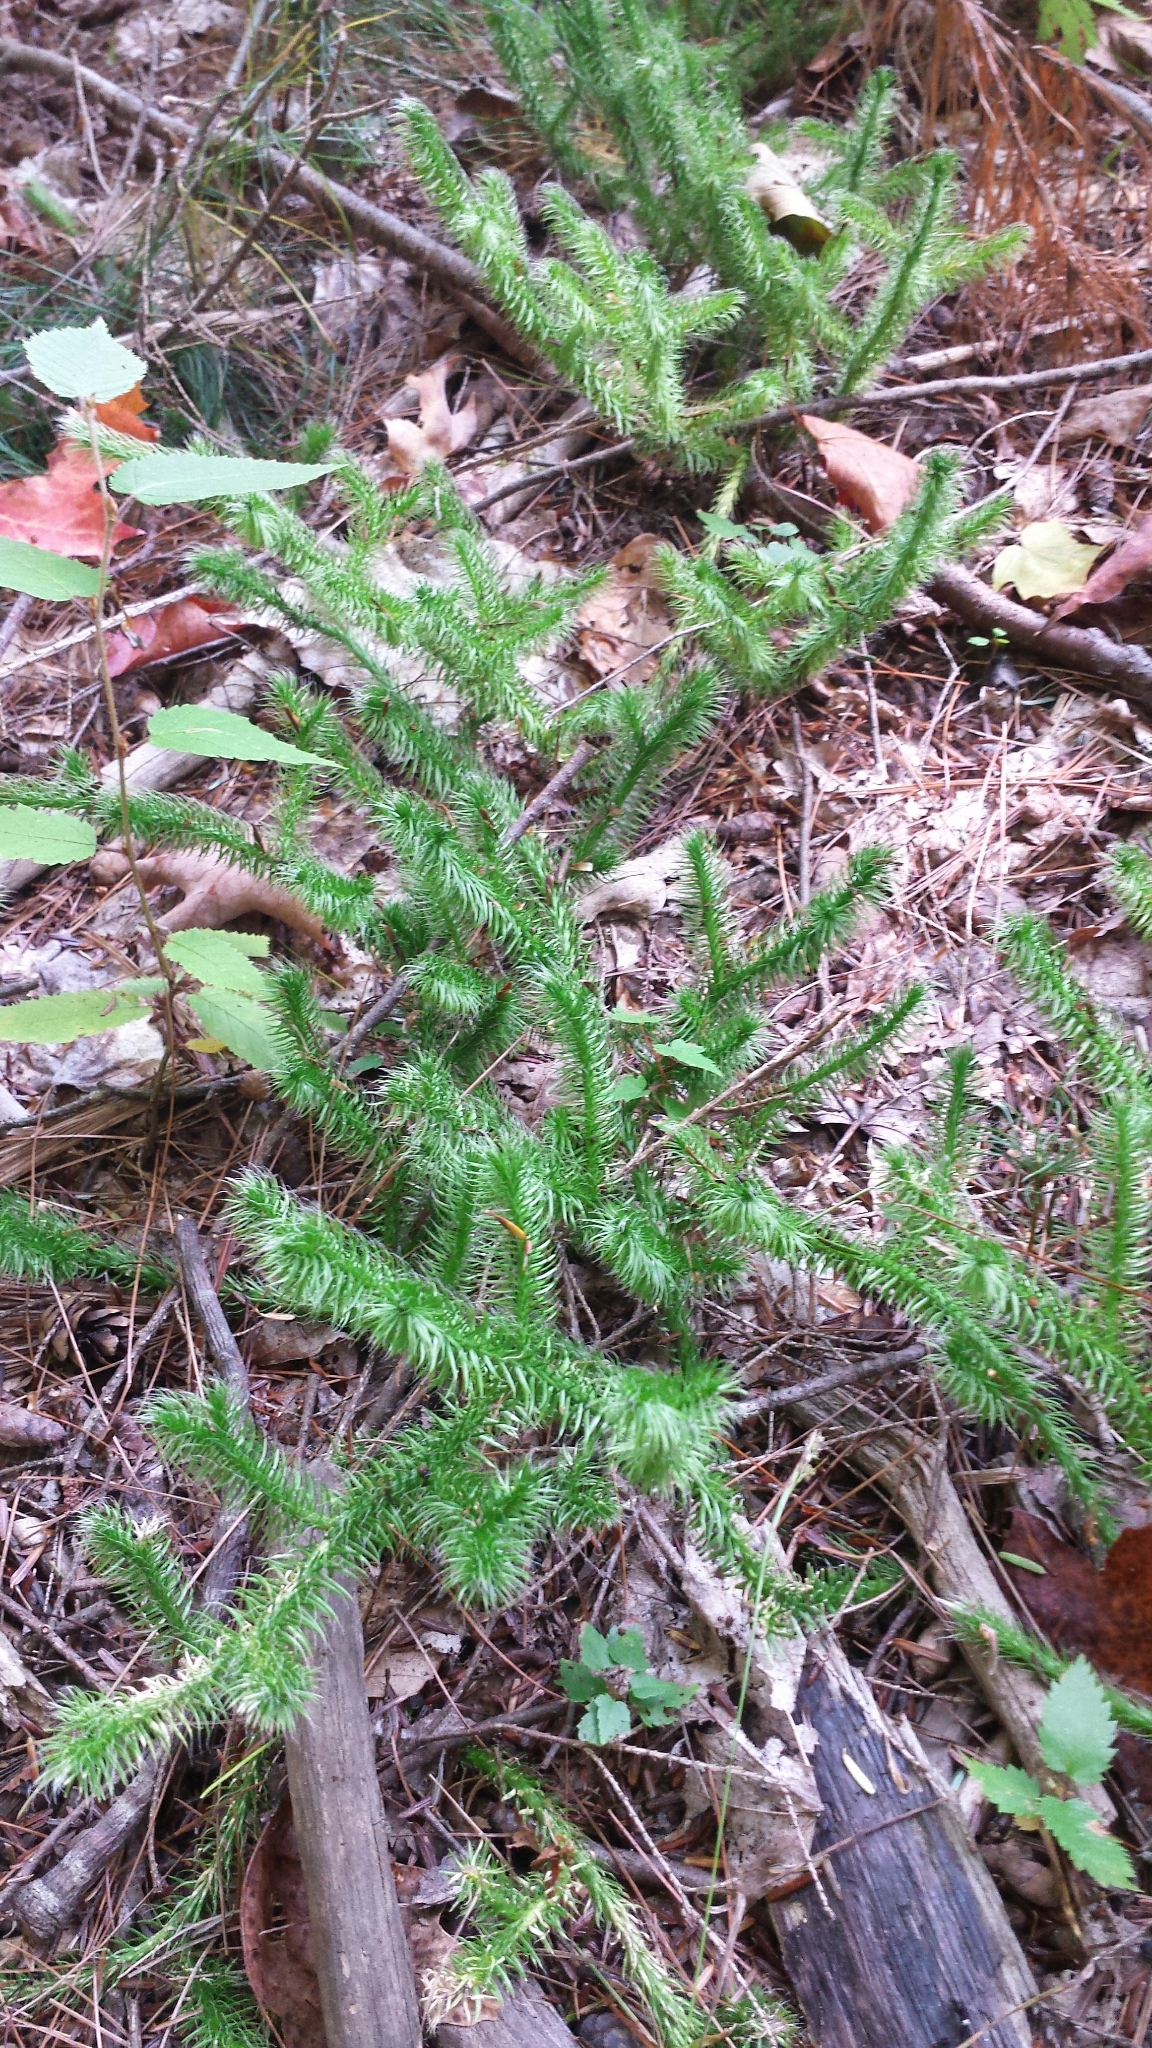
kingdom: Plantae
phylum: Tracheophyta
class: Lycopodiopsida
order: Lycopodiales
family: Lycopodiaceae
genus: Lycopodium
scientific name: Lycopodium clavatum
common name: Stag's-horn clubmoss
